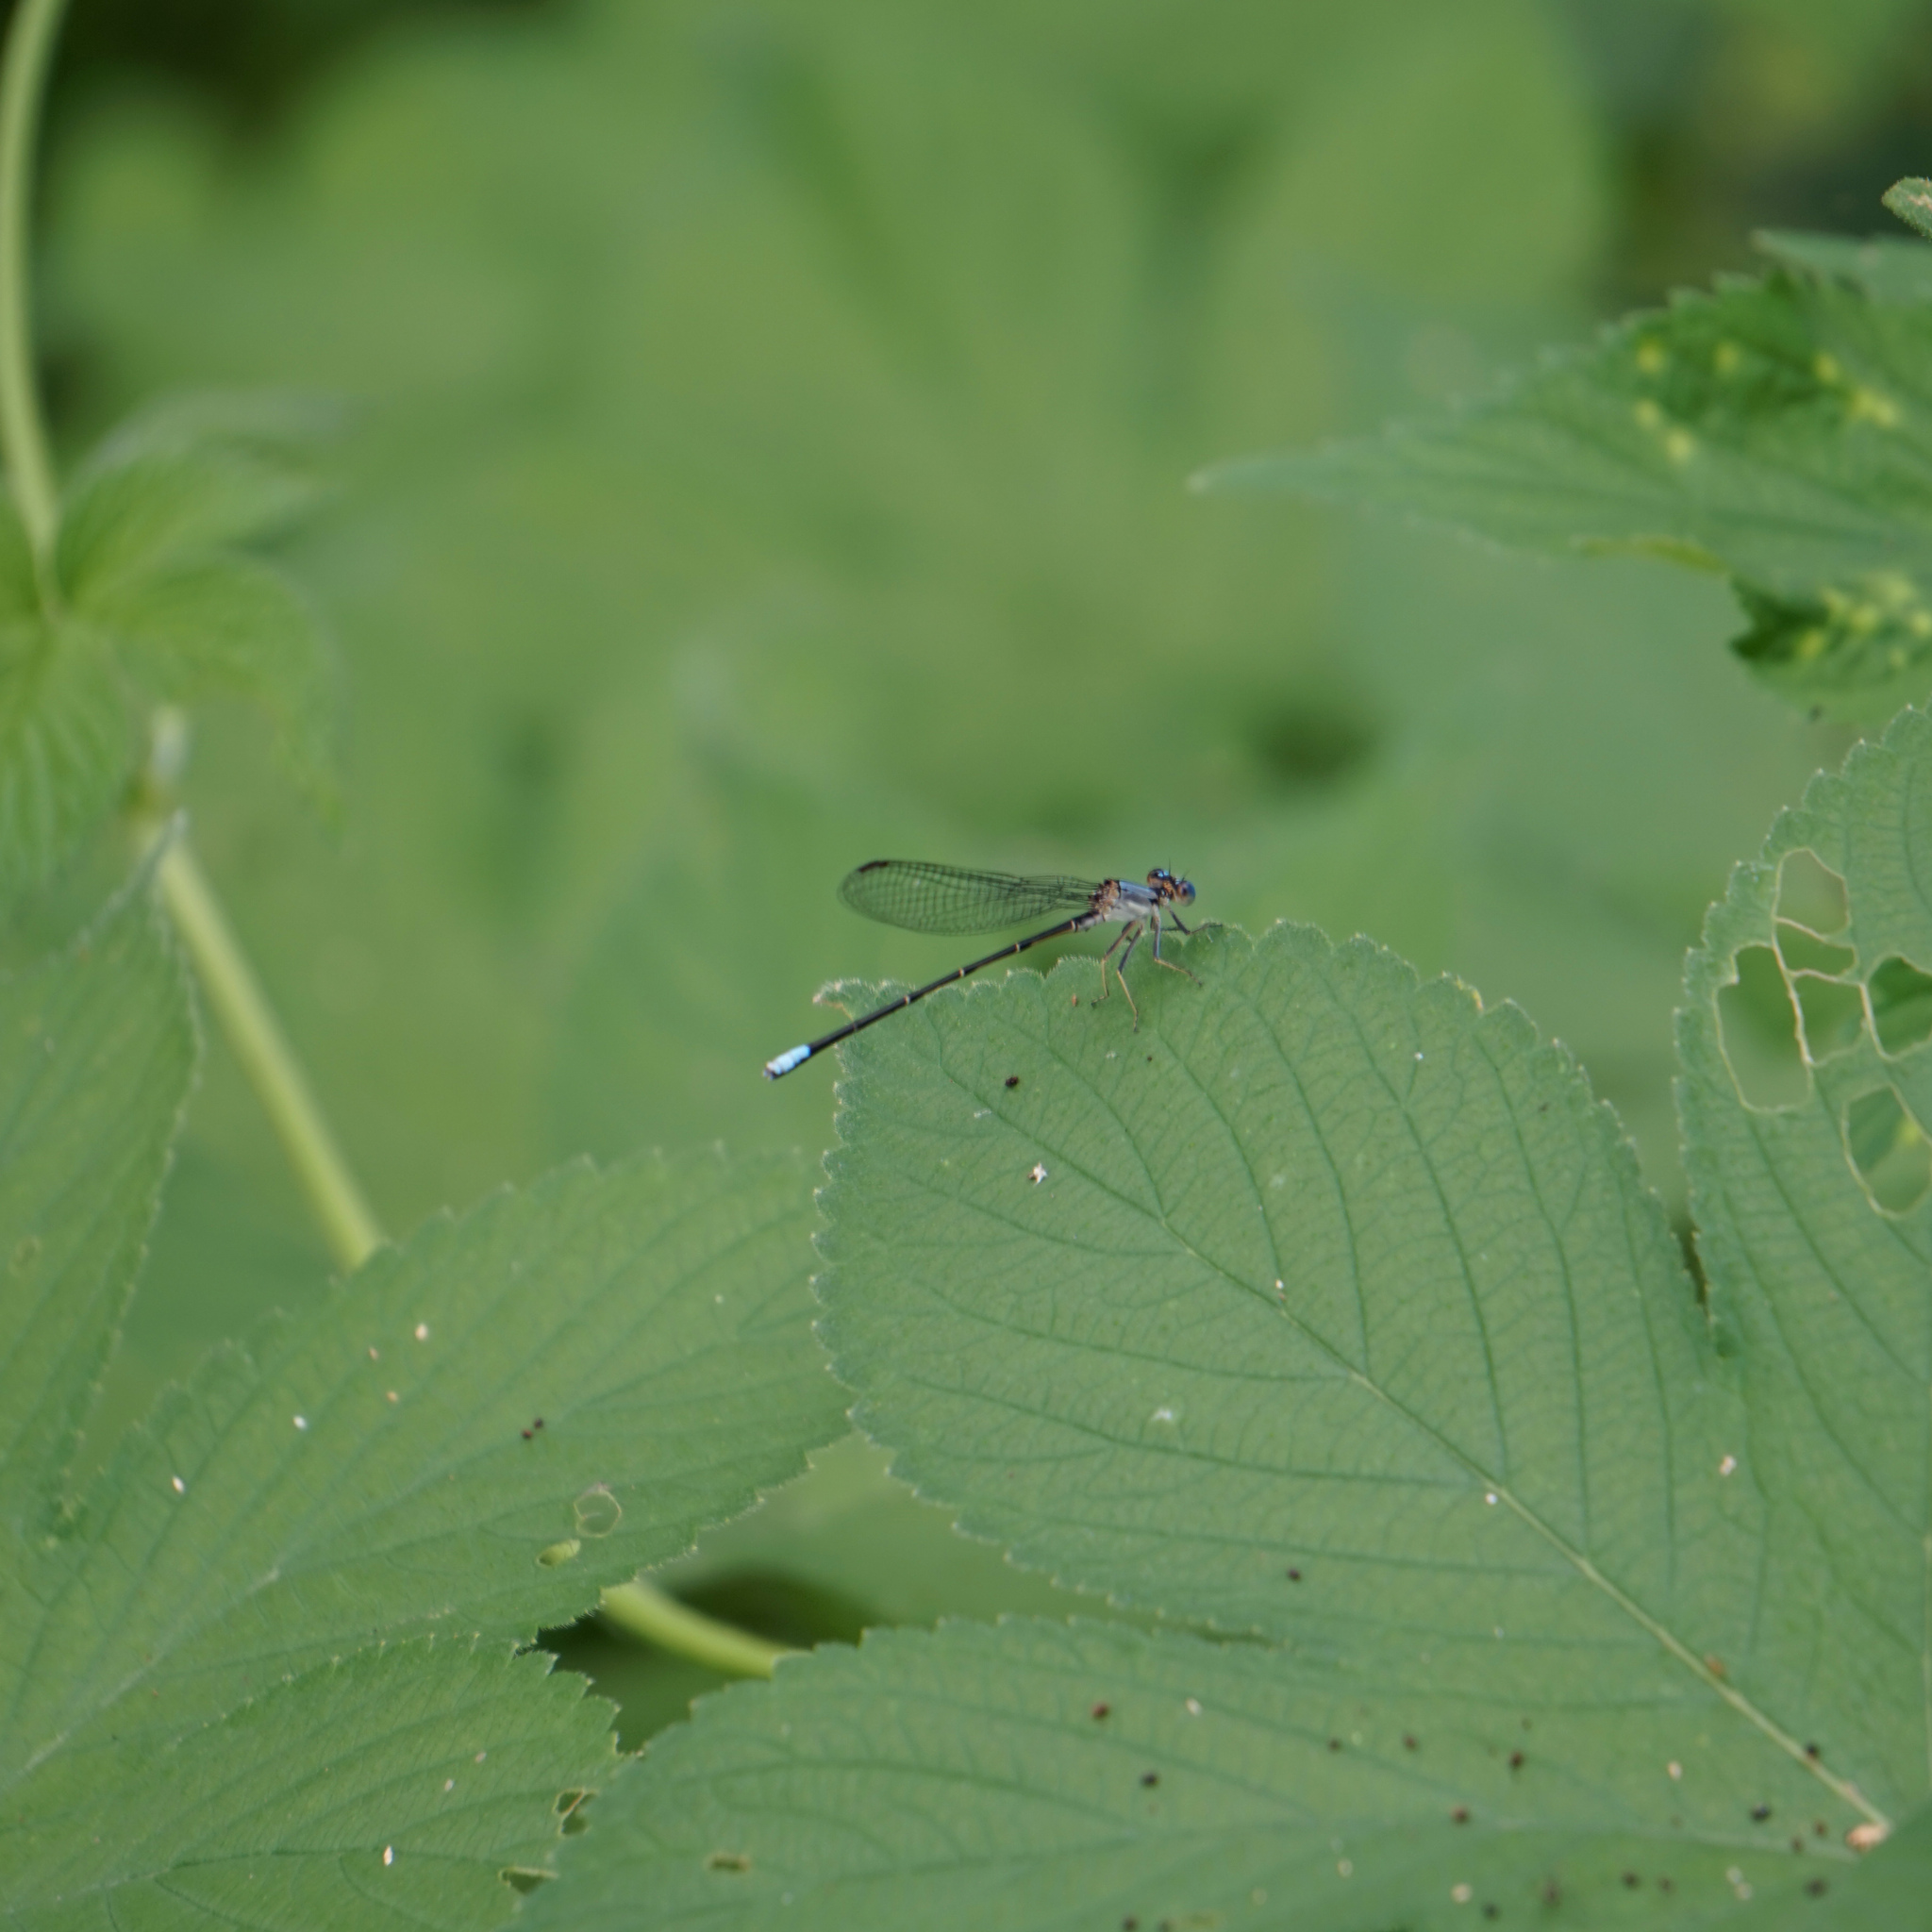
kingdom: Animalia
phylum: Arthropoda
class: Insecta
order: Odonata
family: Coenagrionidae
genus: Argia
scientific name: Argia apicalis
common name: Blue-fronted dancer
